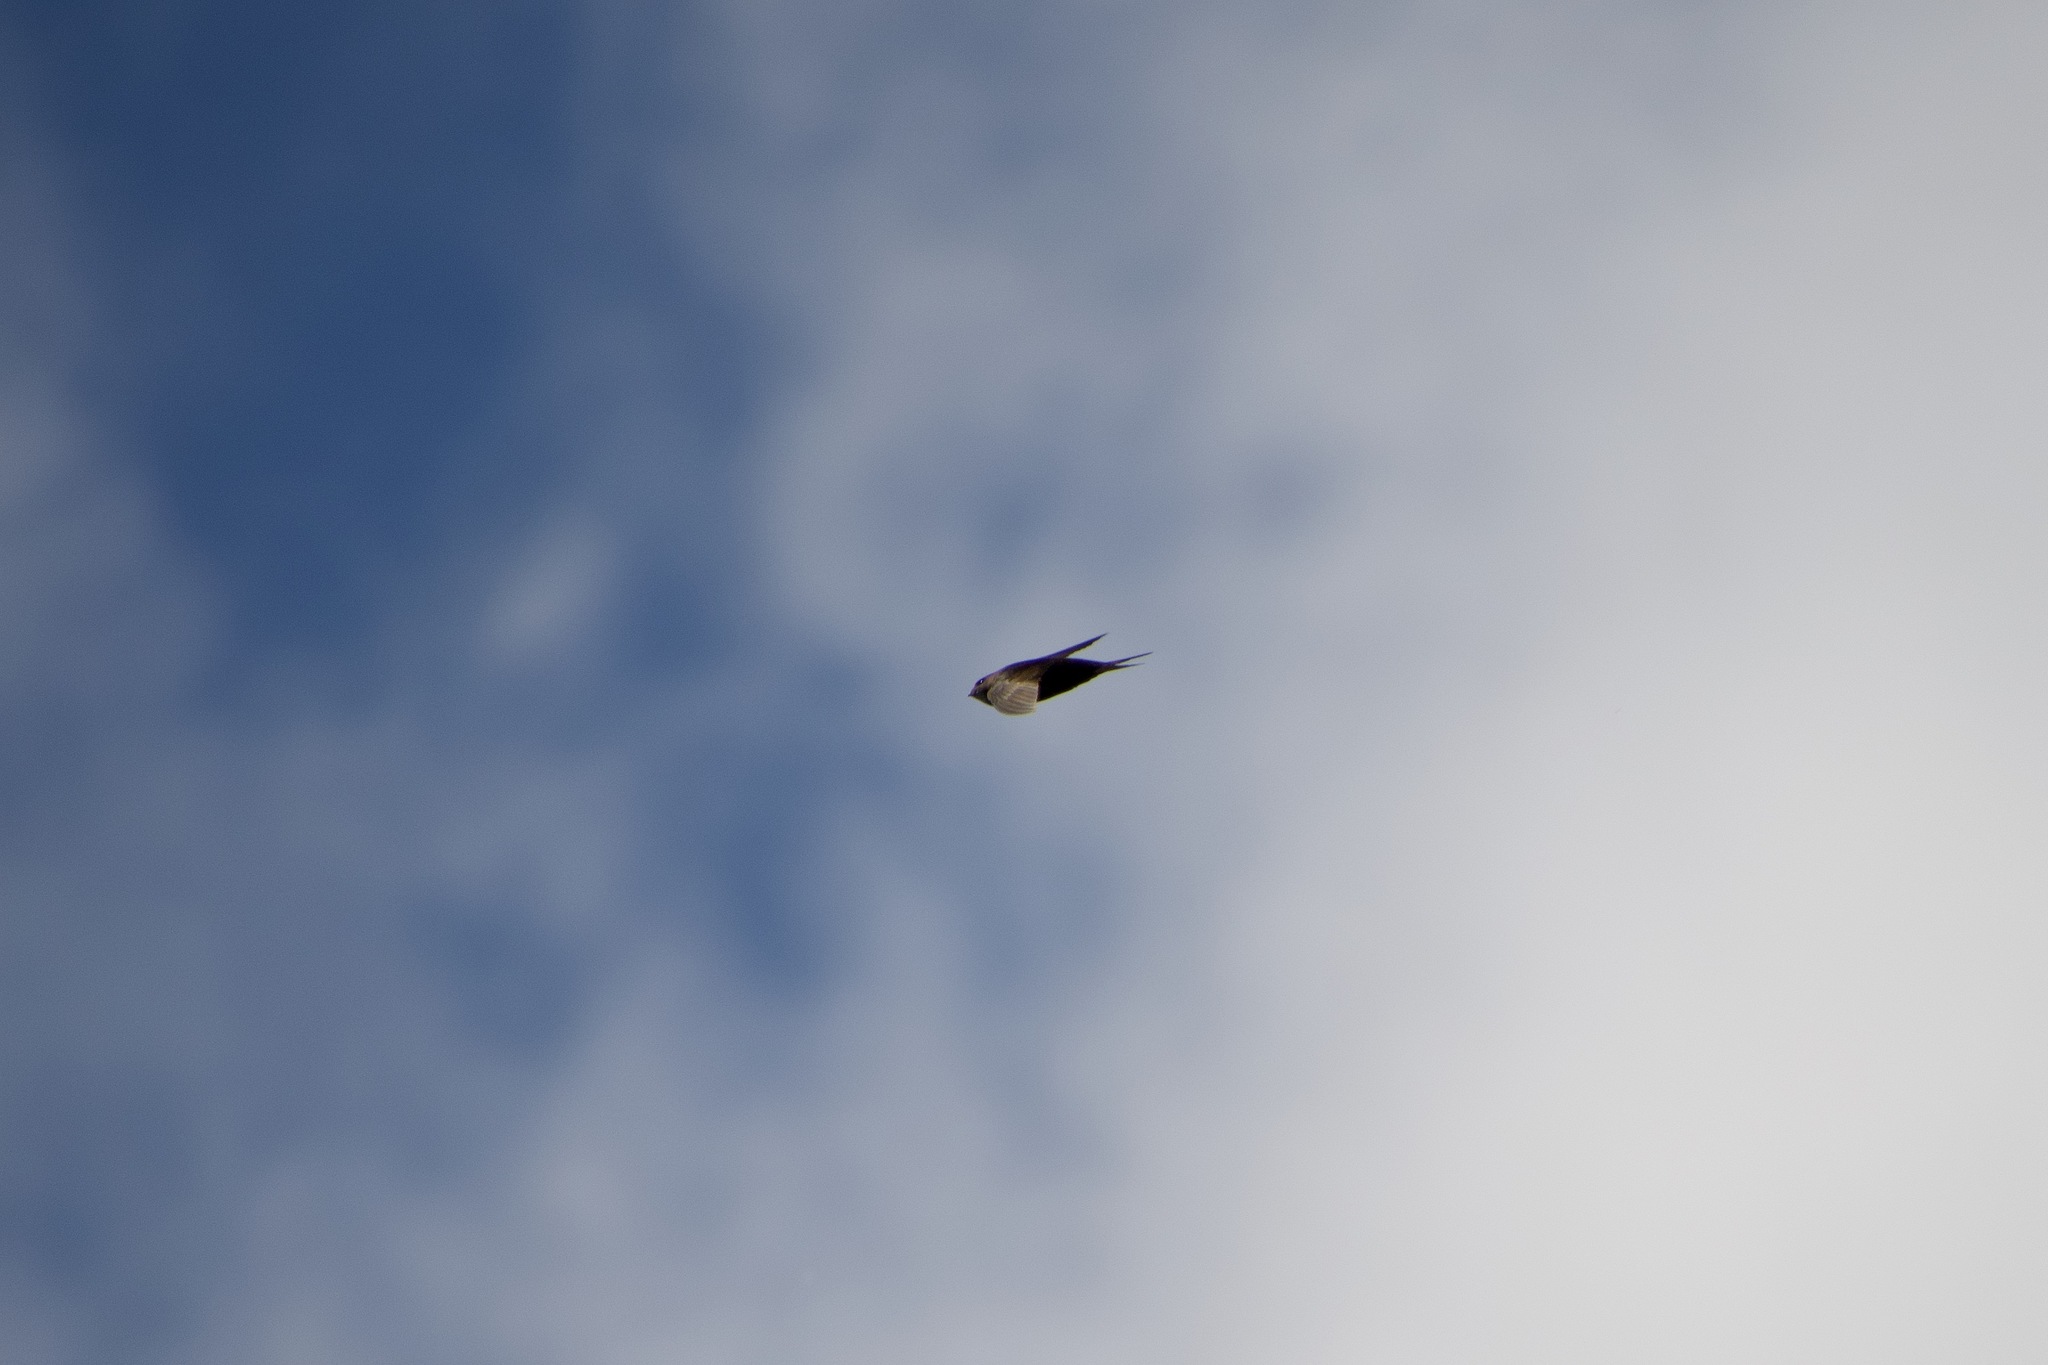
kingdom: Animalia
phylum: Chordata
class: Aves
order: Apodiformes
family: Apodidae
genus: Apus
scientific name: Apus apus
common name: Common swift
